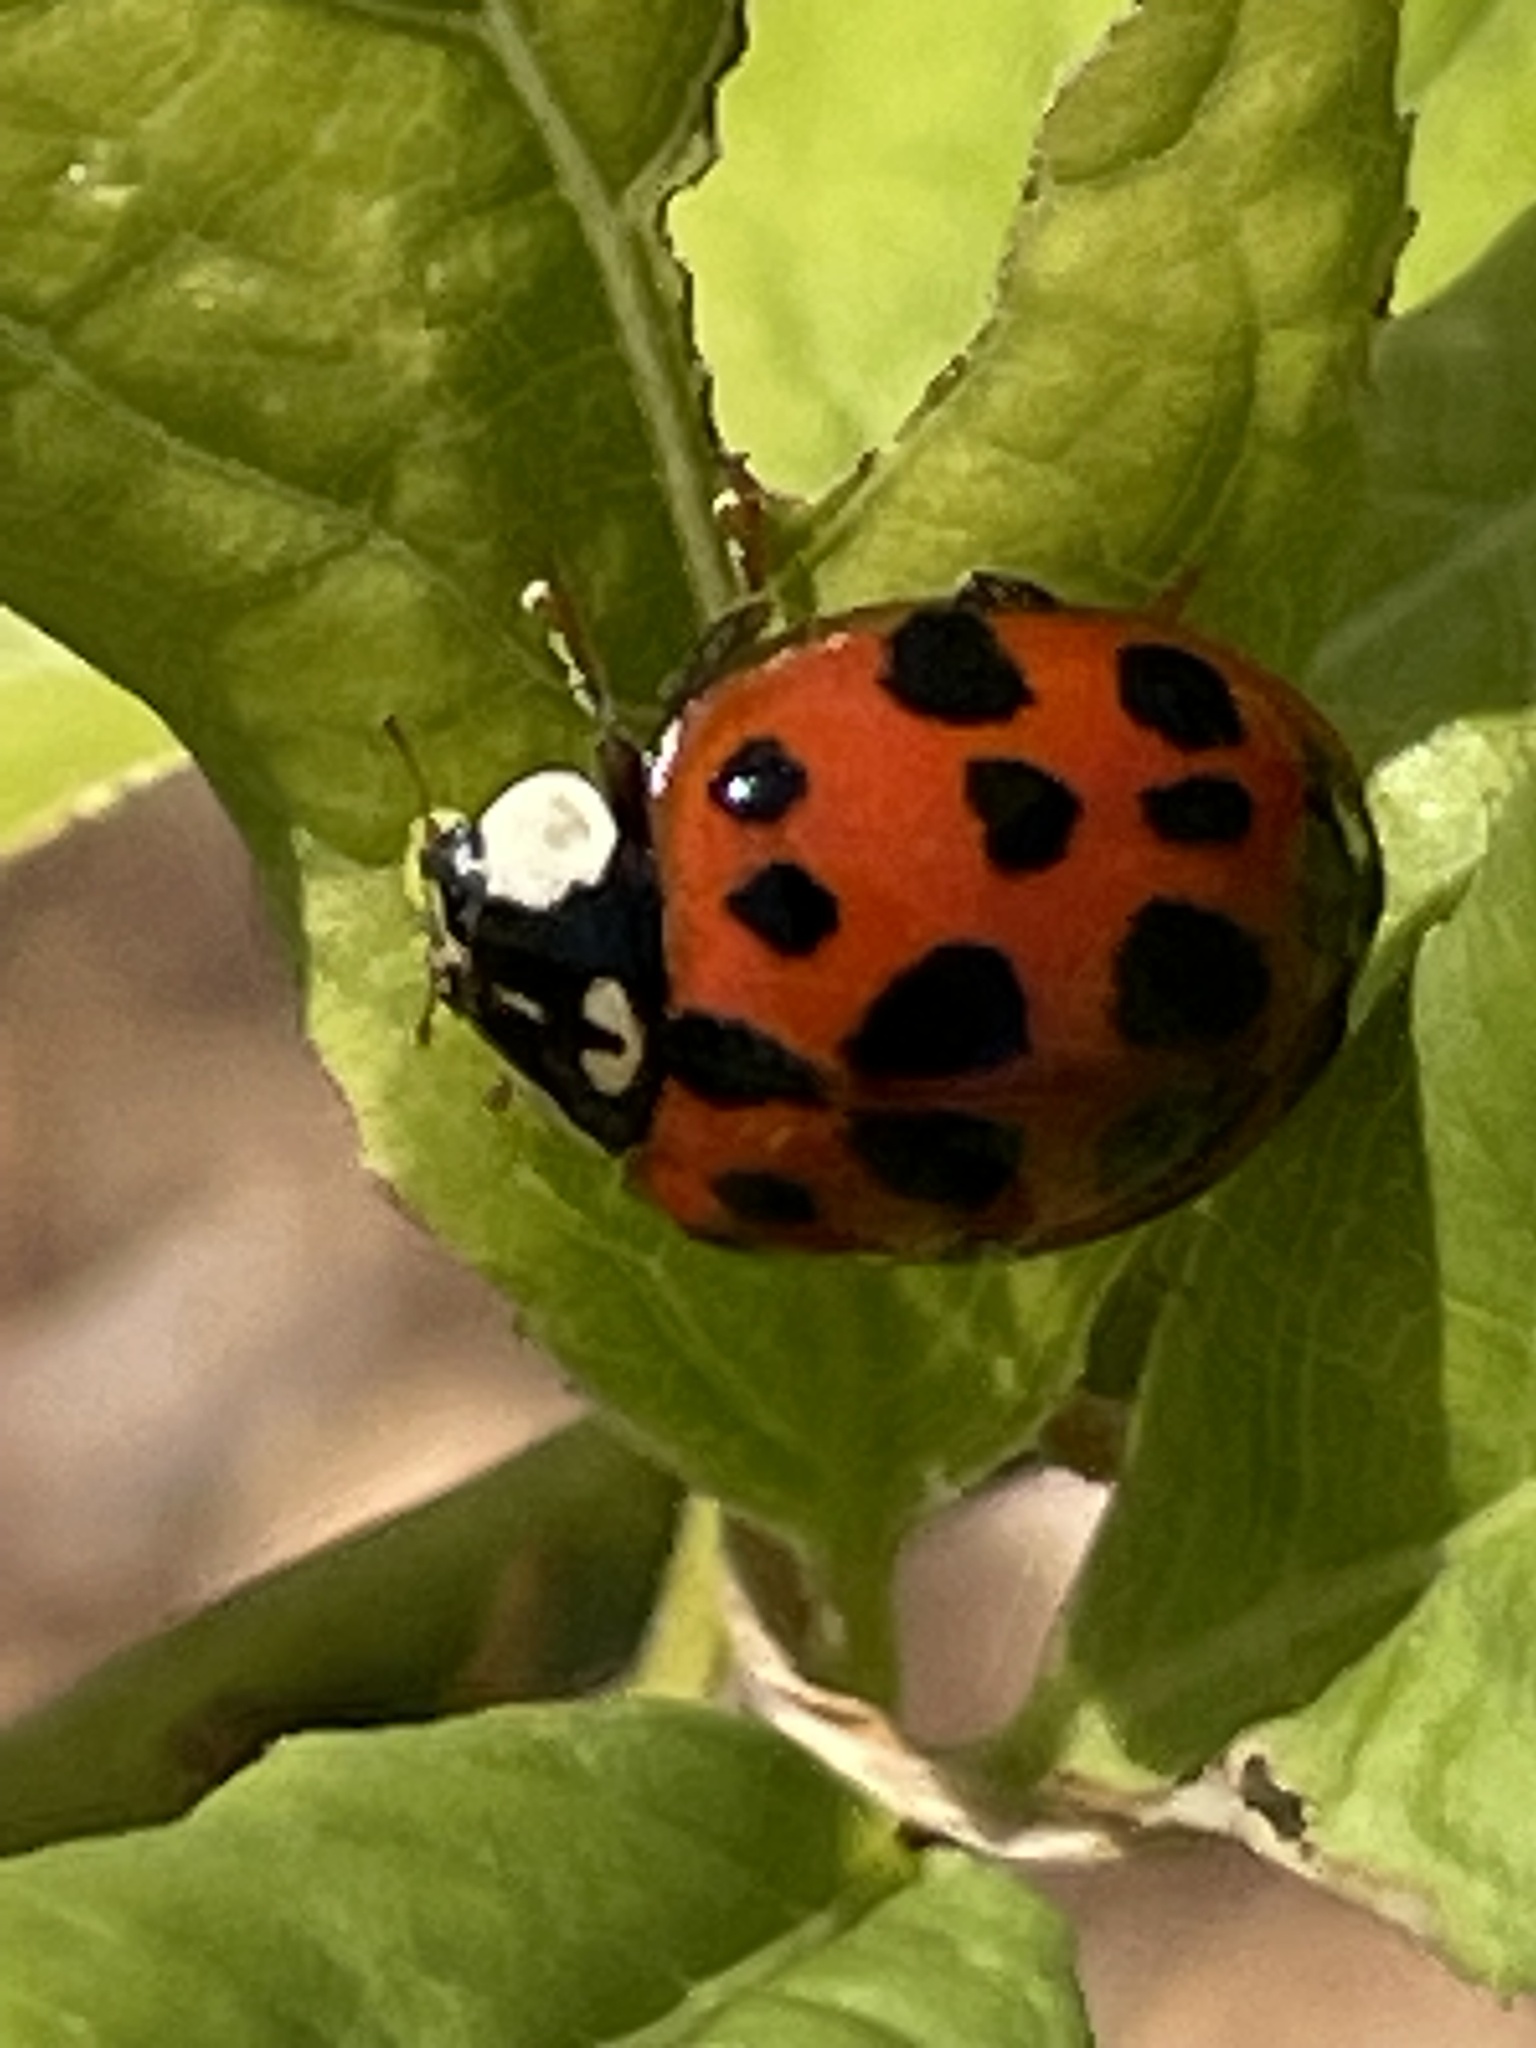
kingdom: Animalia
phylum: Arthropoda
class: Insecta
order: Coleoptera
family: Coccinellidae
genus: Harmonia
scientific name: Harmonia axyridis
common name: Harlequin ladybird
